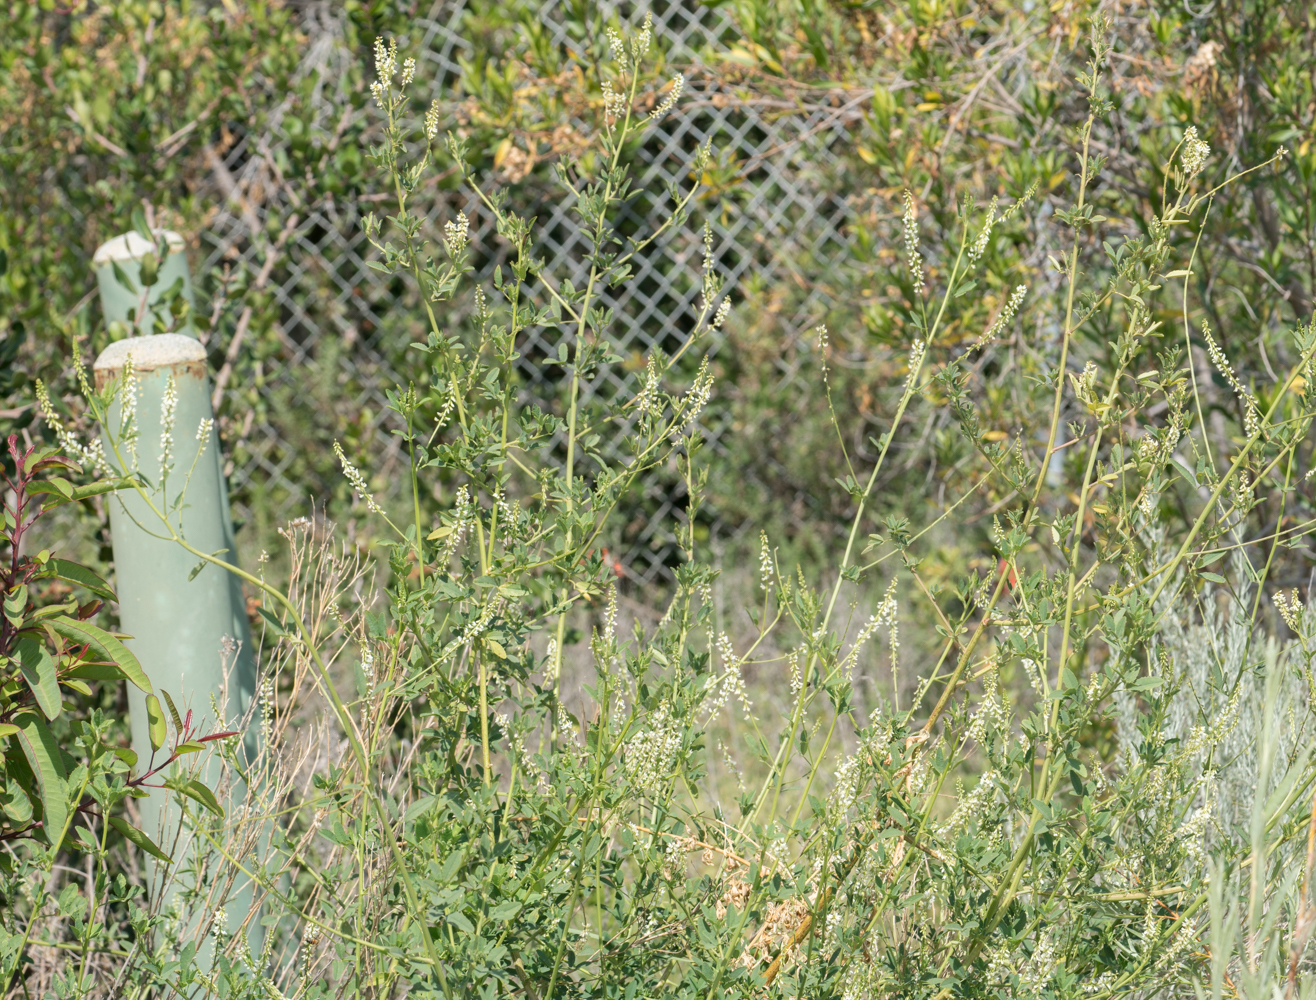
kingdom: Plantae
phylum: Tracheophyta
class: Magnoliopsida
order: Fabales
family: Fabaceae
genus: Melilotus
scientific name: Melilotus albus
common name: White melilot
